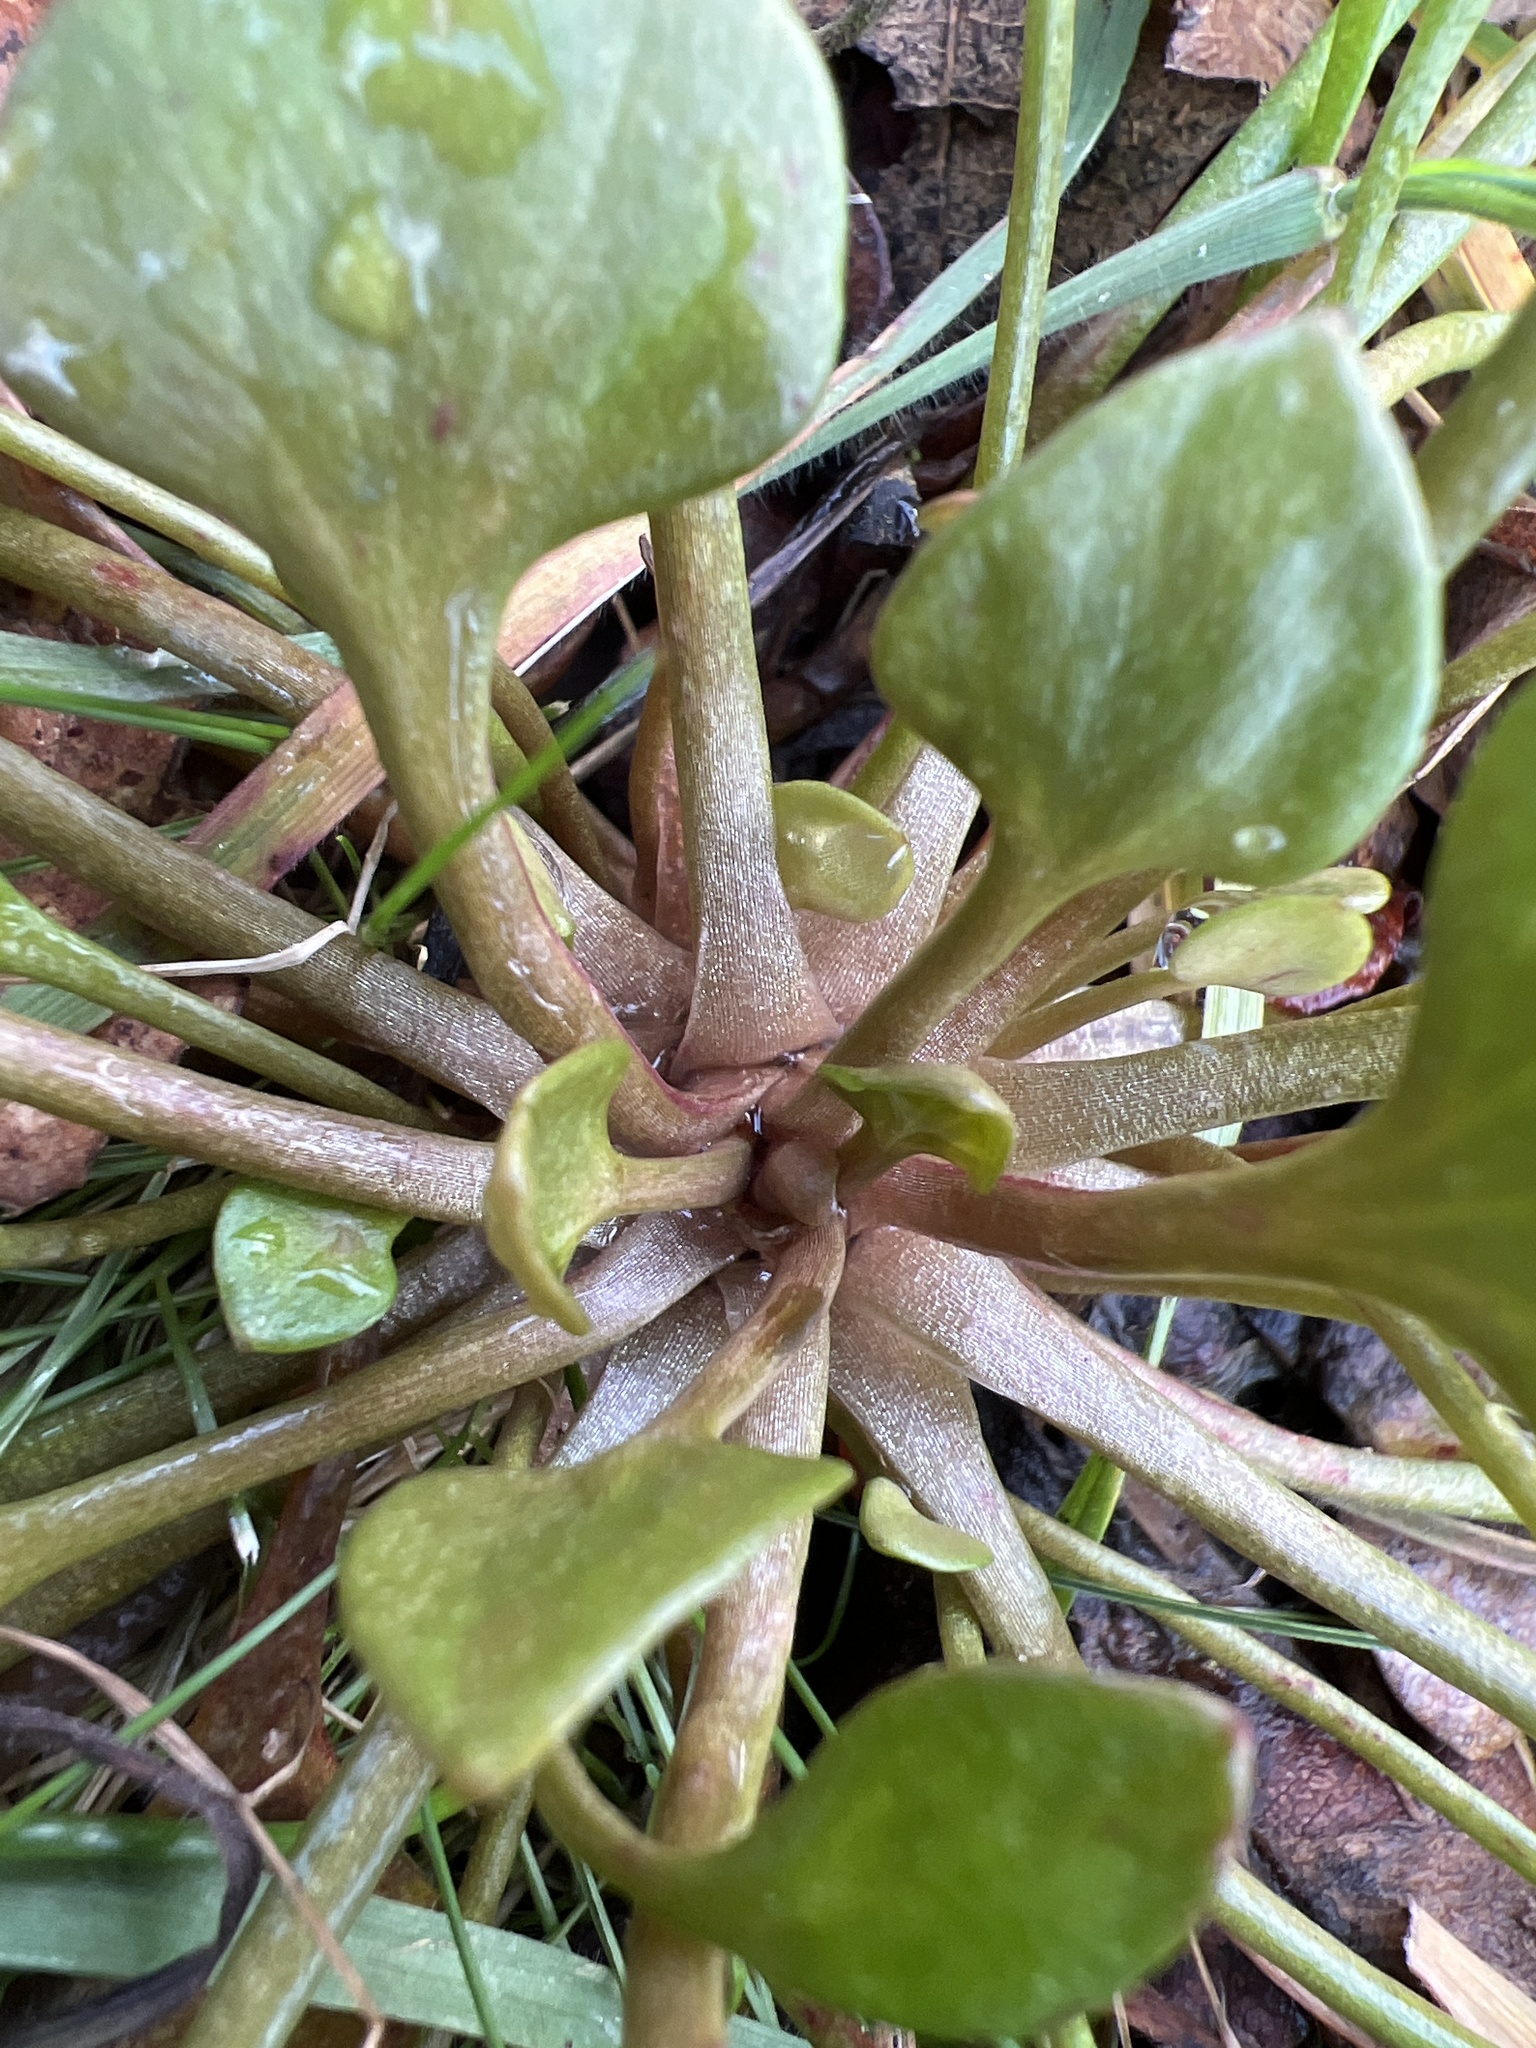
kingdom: Plantae
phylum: Tracheophyta
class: Magnoliopsida
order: Caryophyllales
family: Montiaceae
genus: Claytonia
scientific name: Claytonia rubra
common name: Erubescent miner's-lettuce
